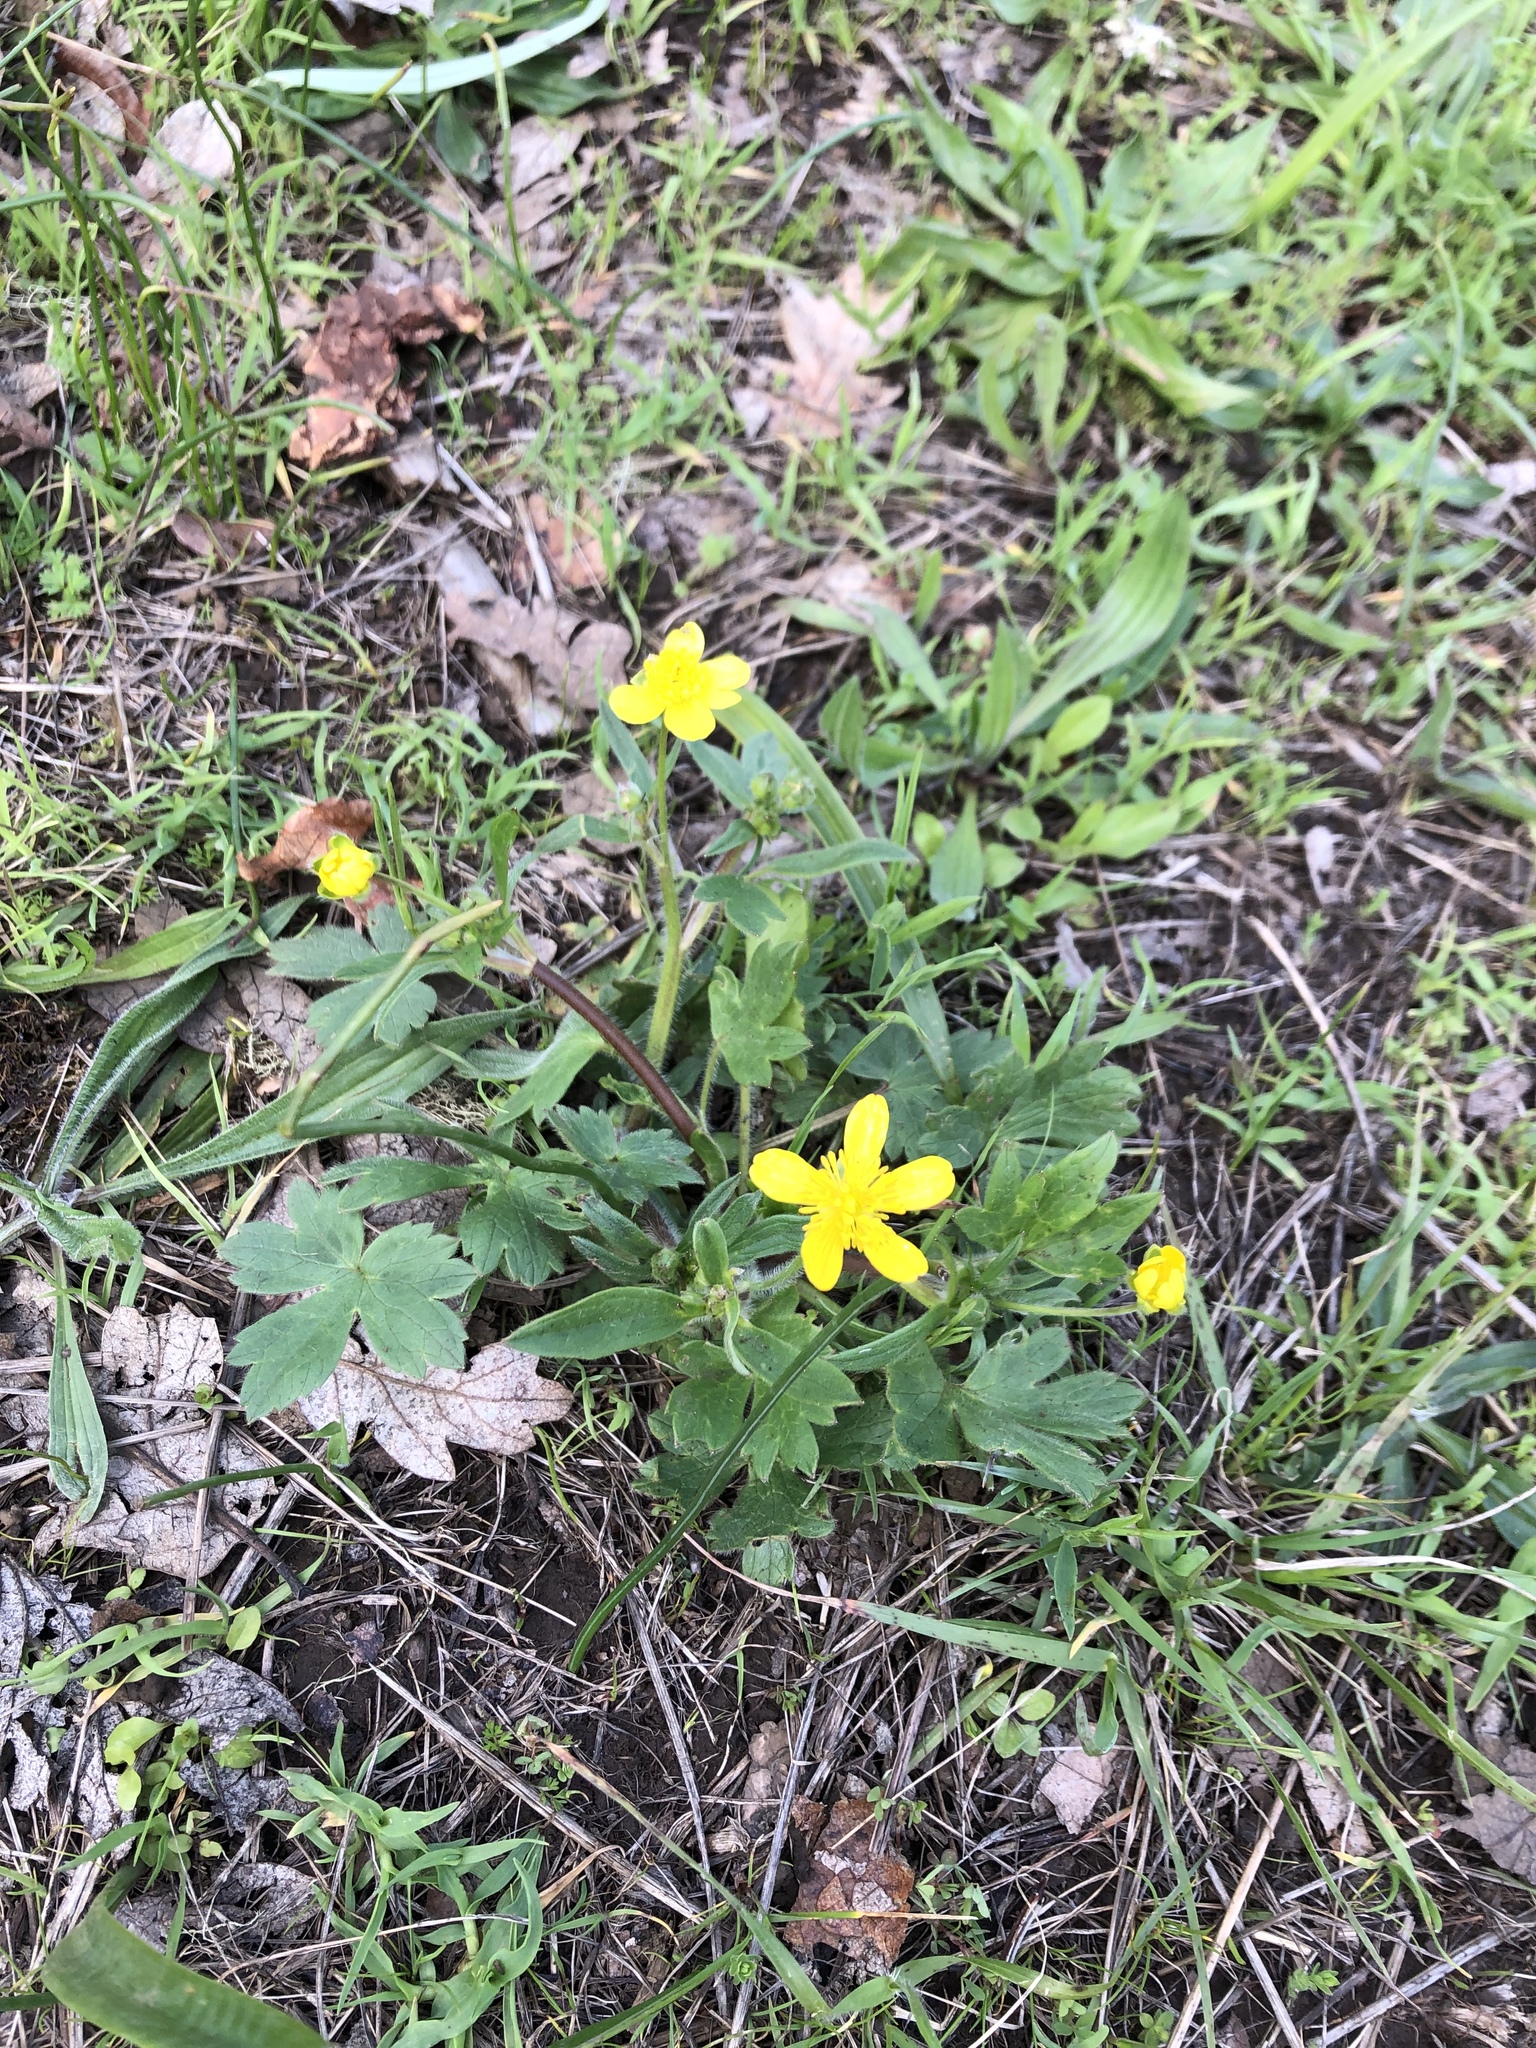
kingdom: Plantae
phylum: Tracheophyta
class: Magnoliopsida
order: Ranunculales
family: Ranunculaceae
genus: Ranunculus
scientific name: Ranunculus occidentalis
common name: Western buttercup
